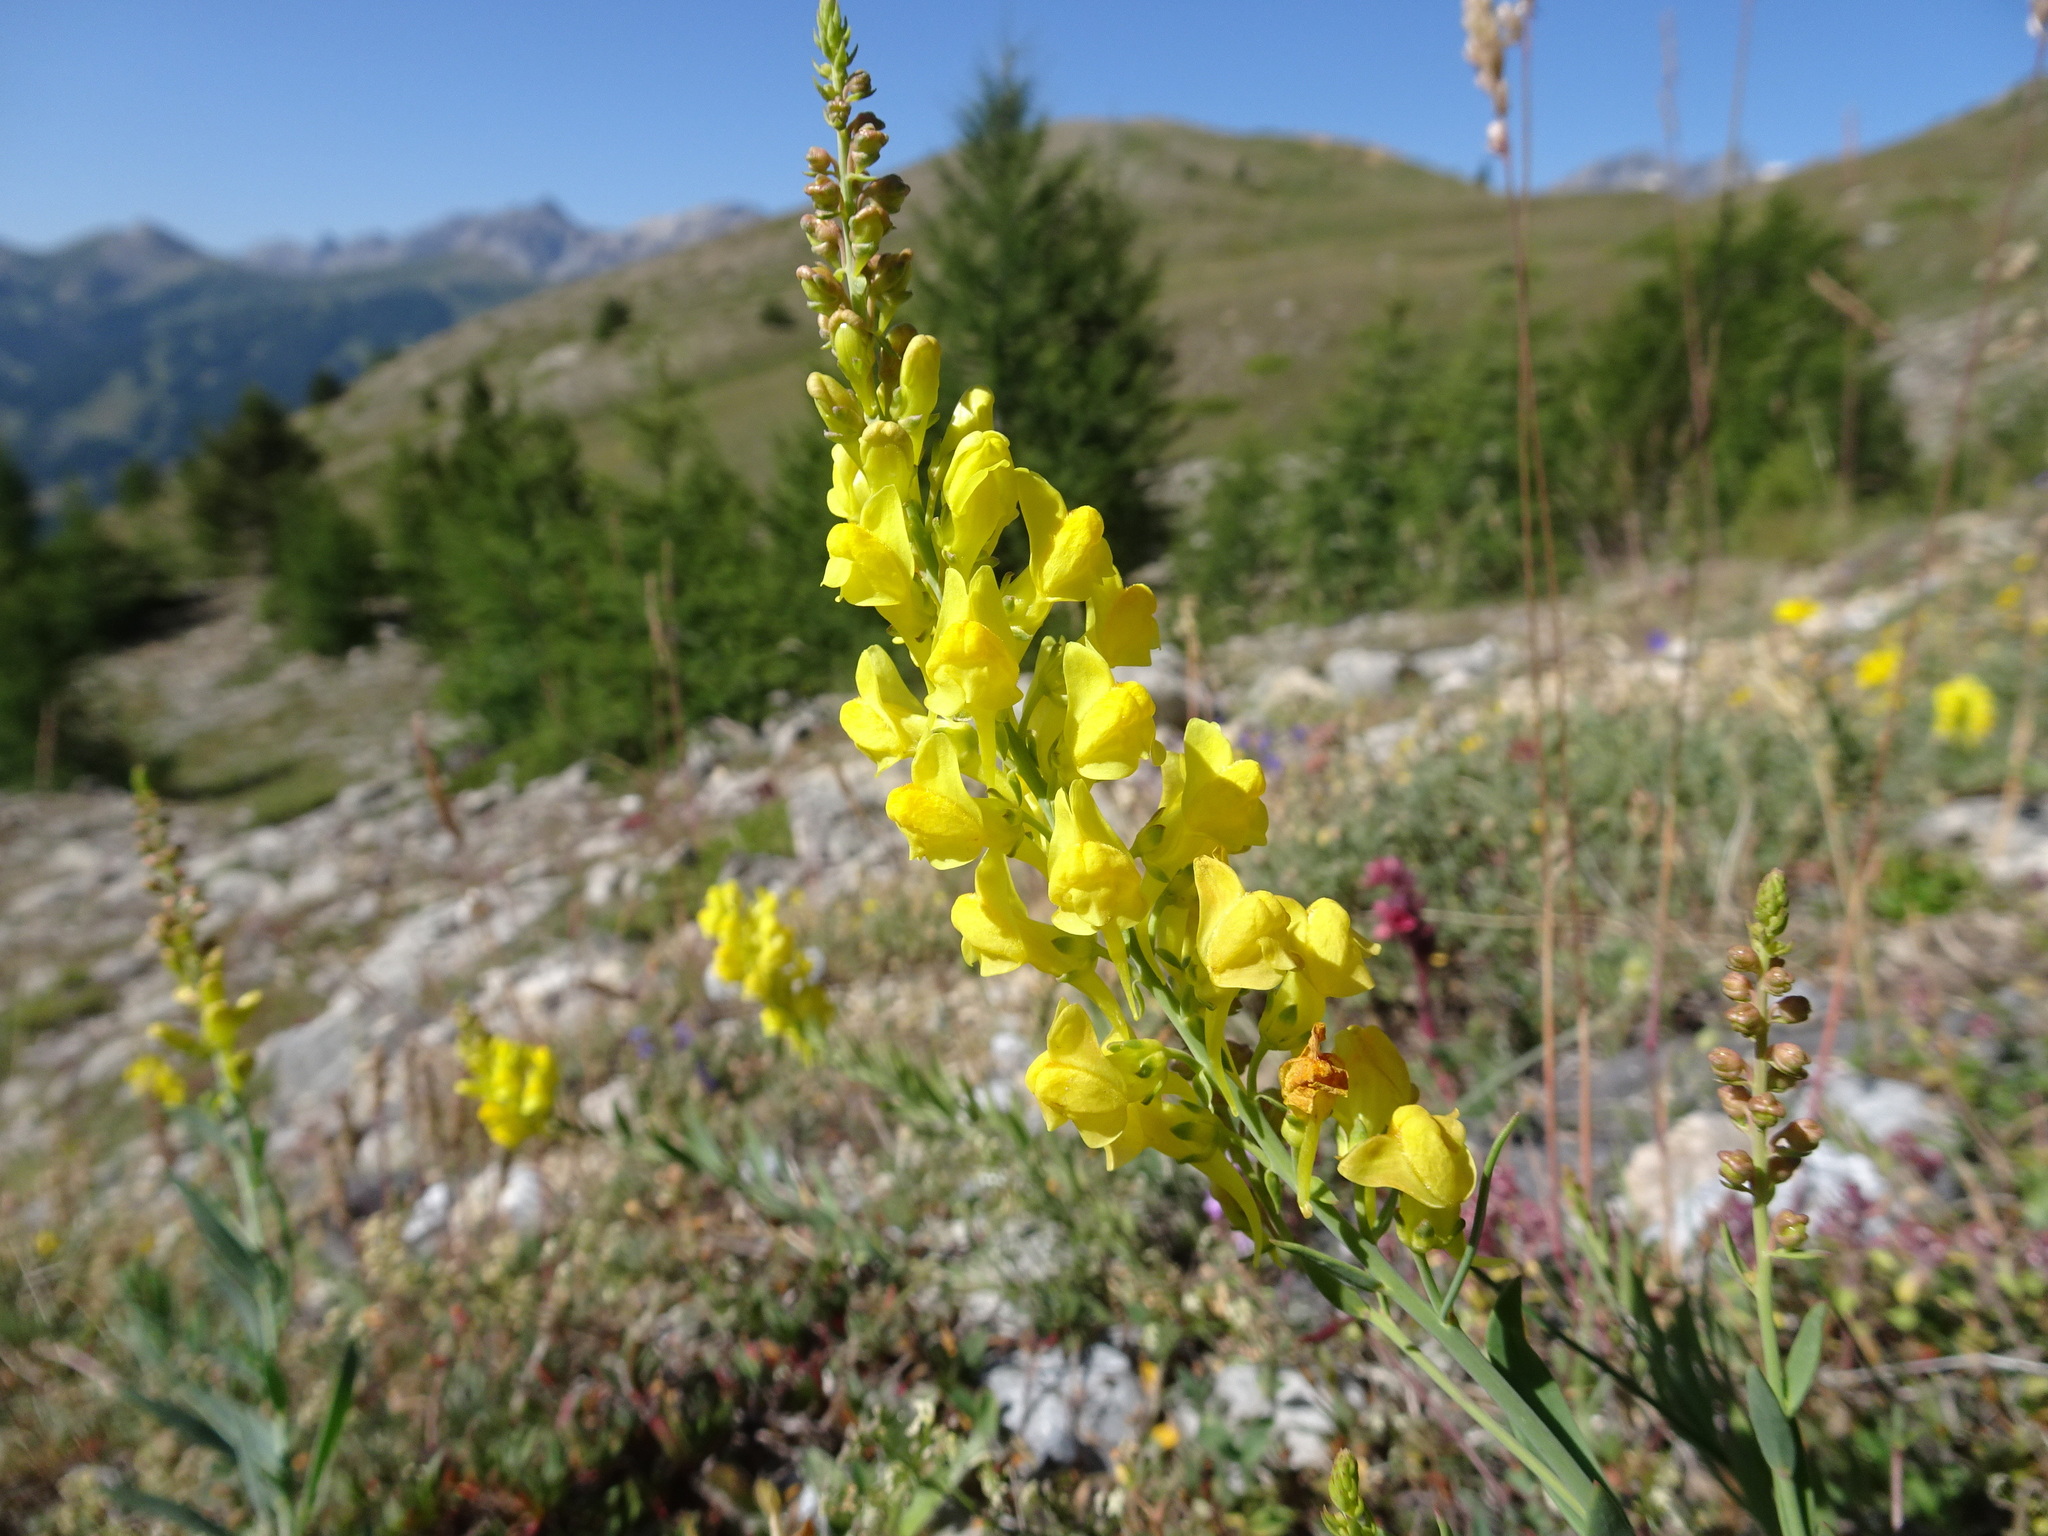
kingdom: Plantae
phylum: Tracheophyta
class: Magnoliopsida
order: Lamiales
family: Plantaginaceae
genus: Linaria
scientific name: Linaria angustissima
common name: Italian toadflax
